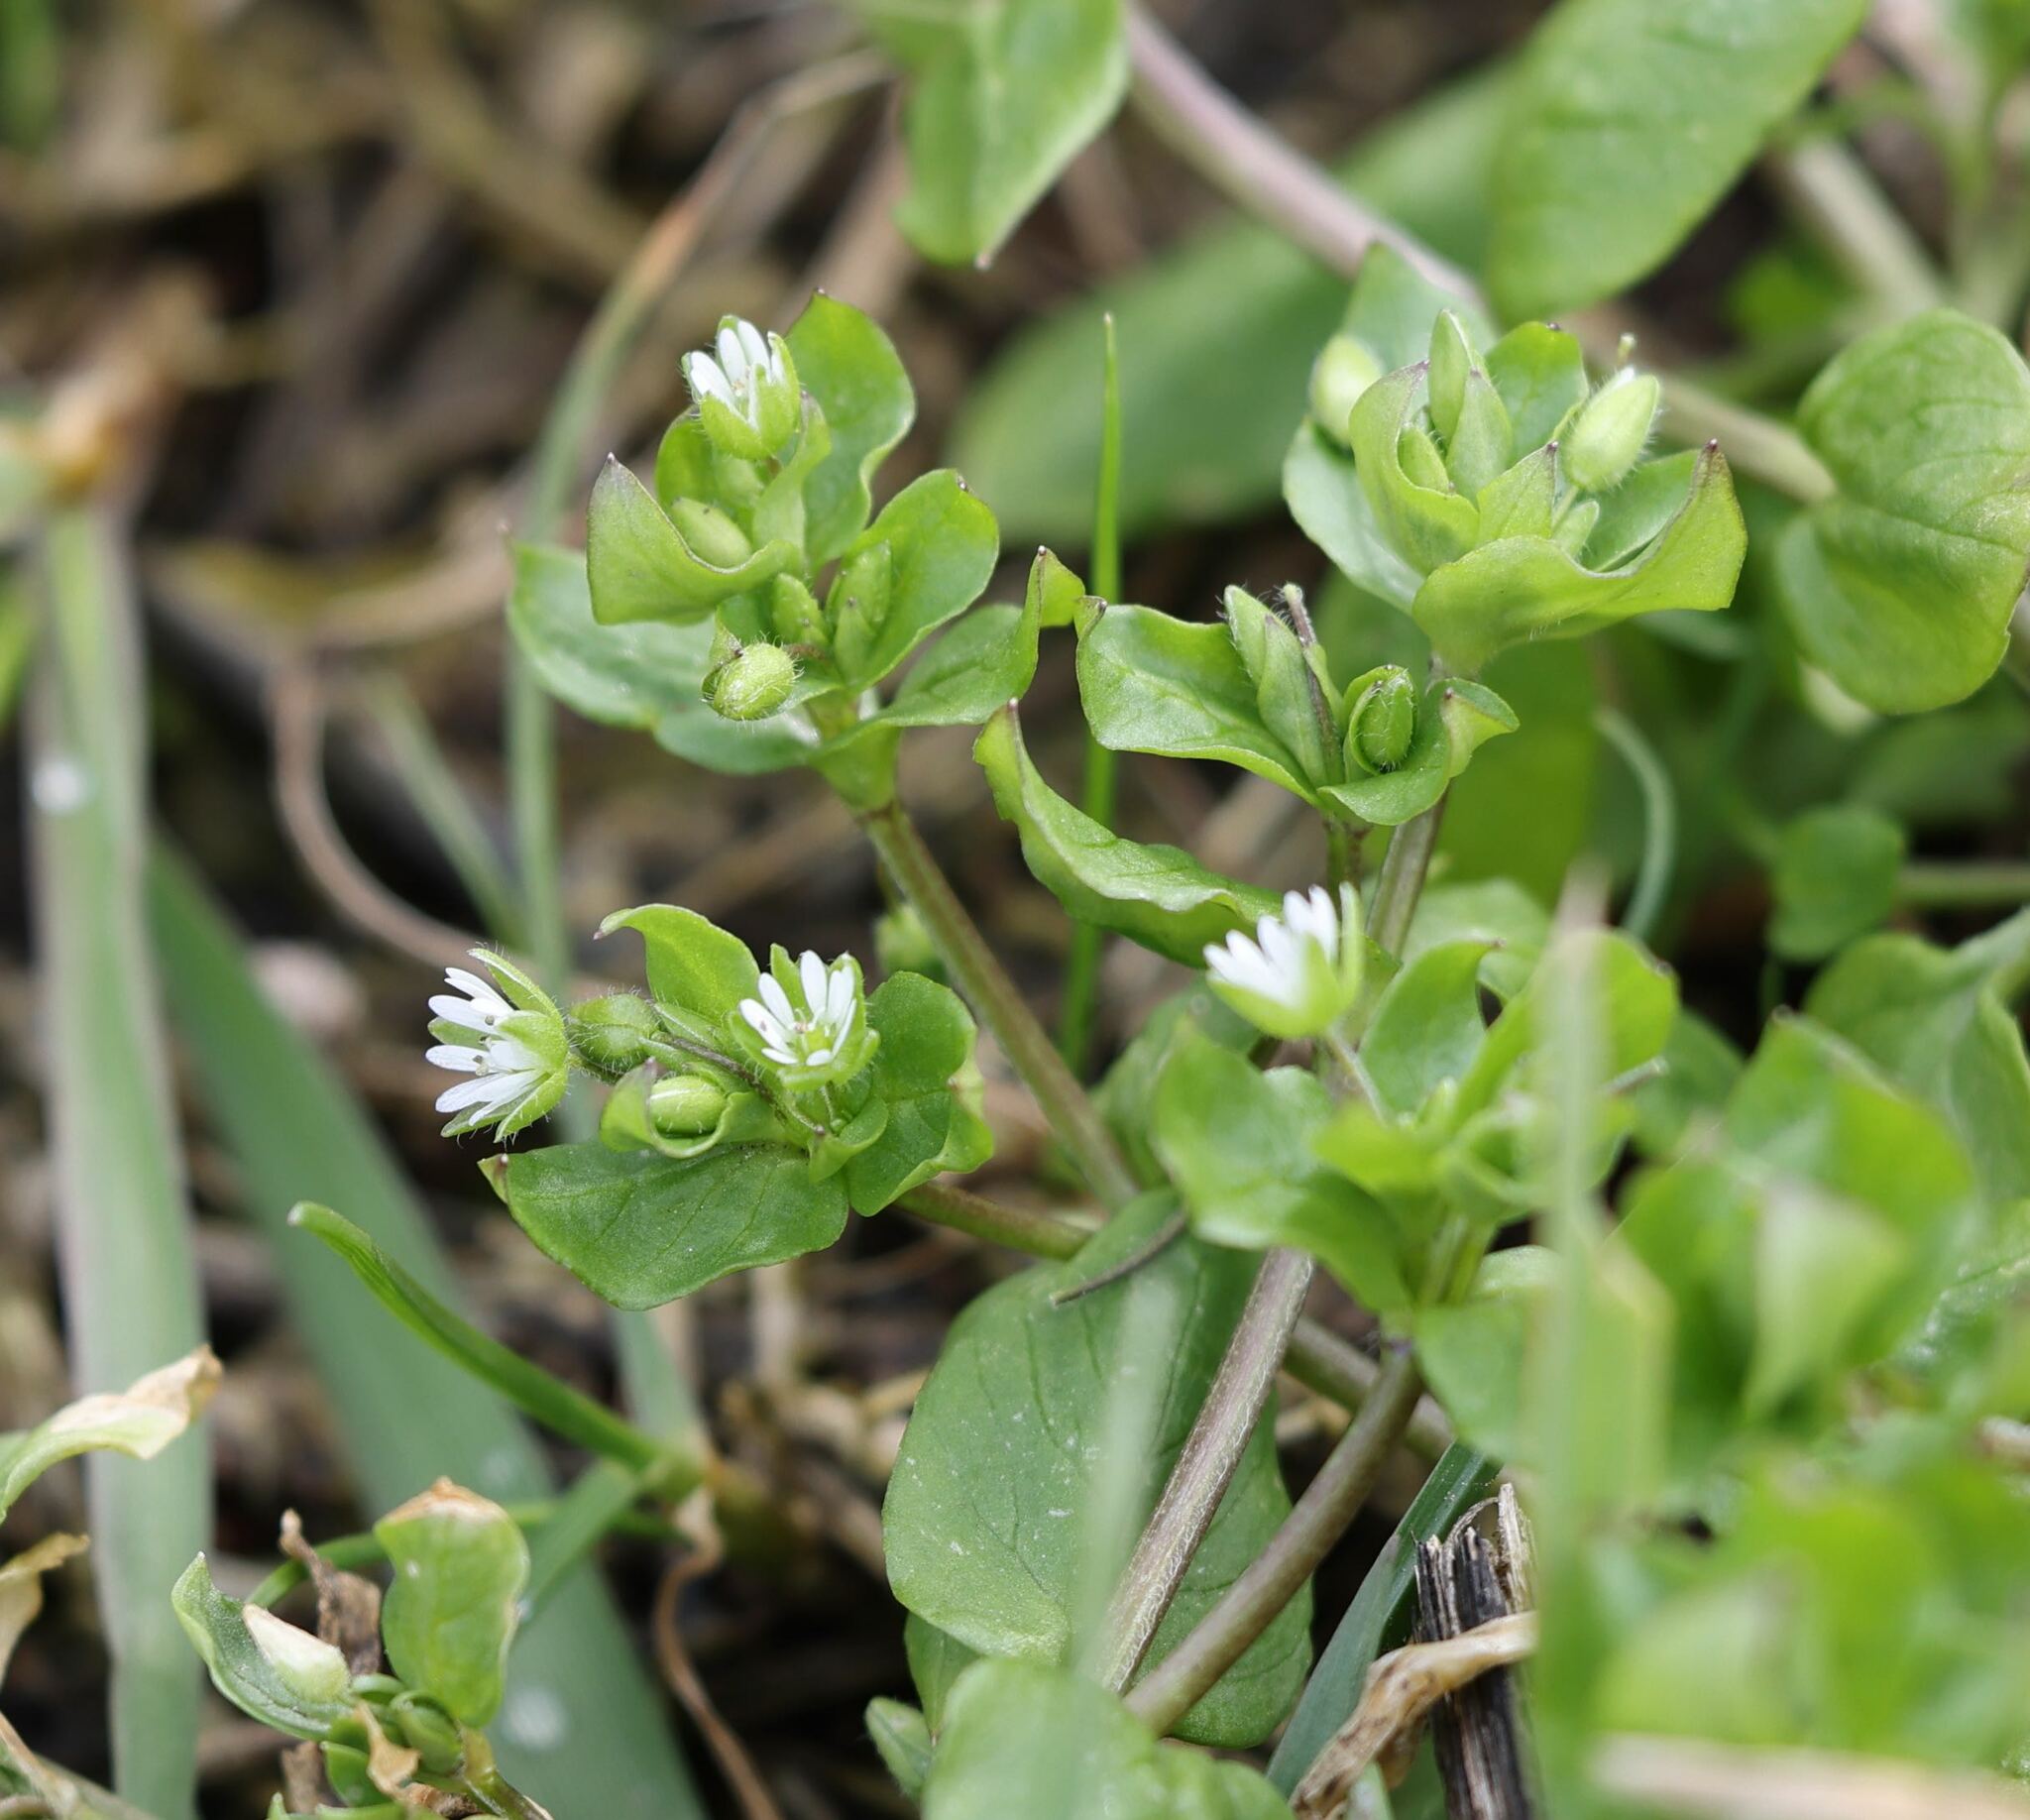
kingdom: Plantae
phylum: Tracheophyta
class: Magnoliopsida
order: Caryophyllales
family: Caryophyllaceae
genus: Stellaria
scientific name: Stellaria media
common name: Common chickweed
